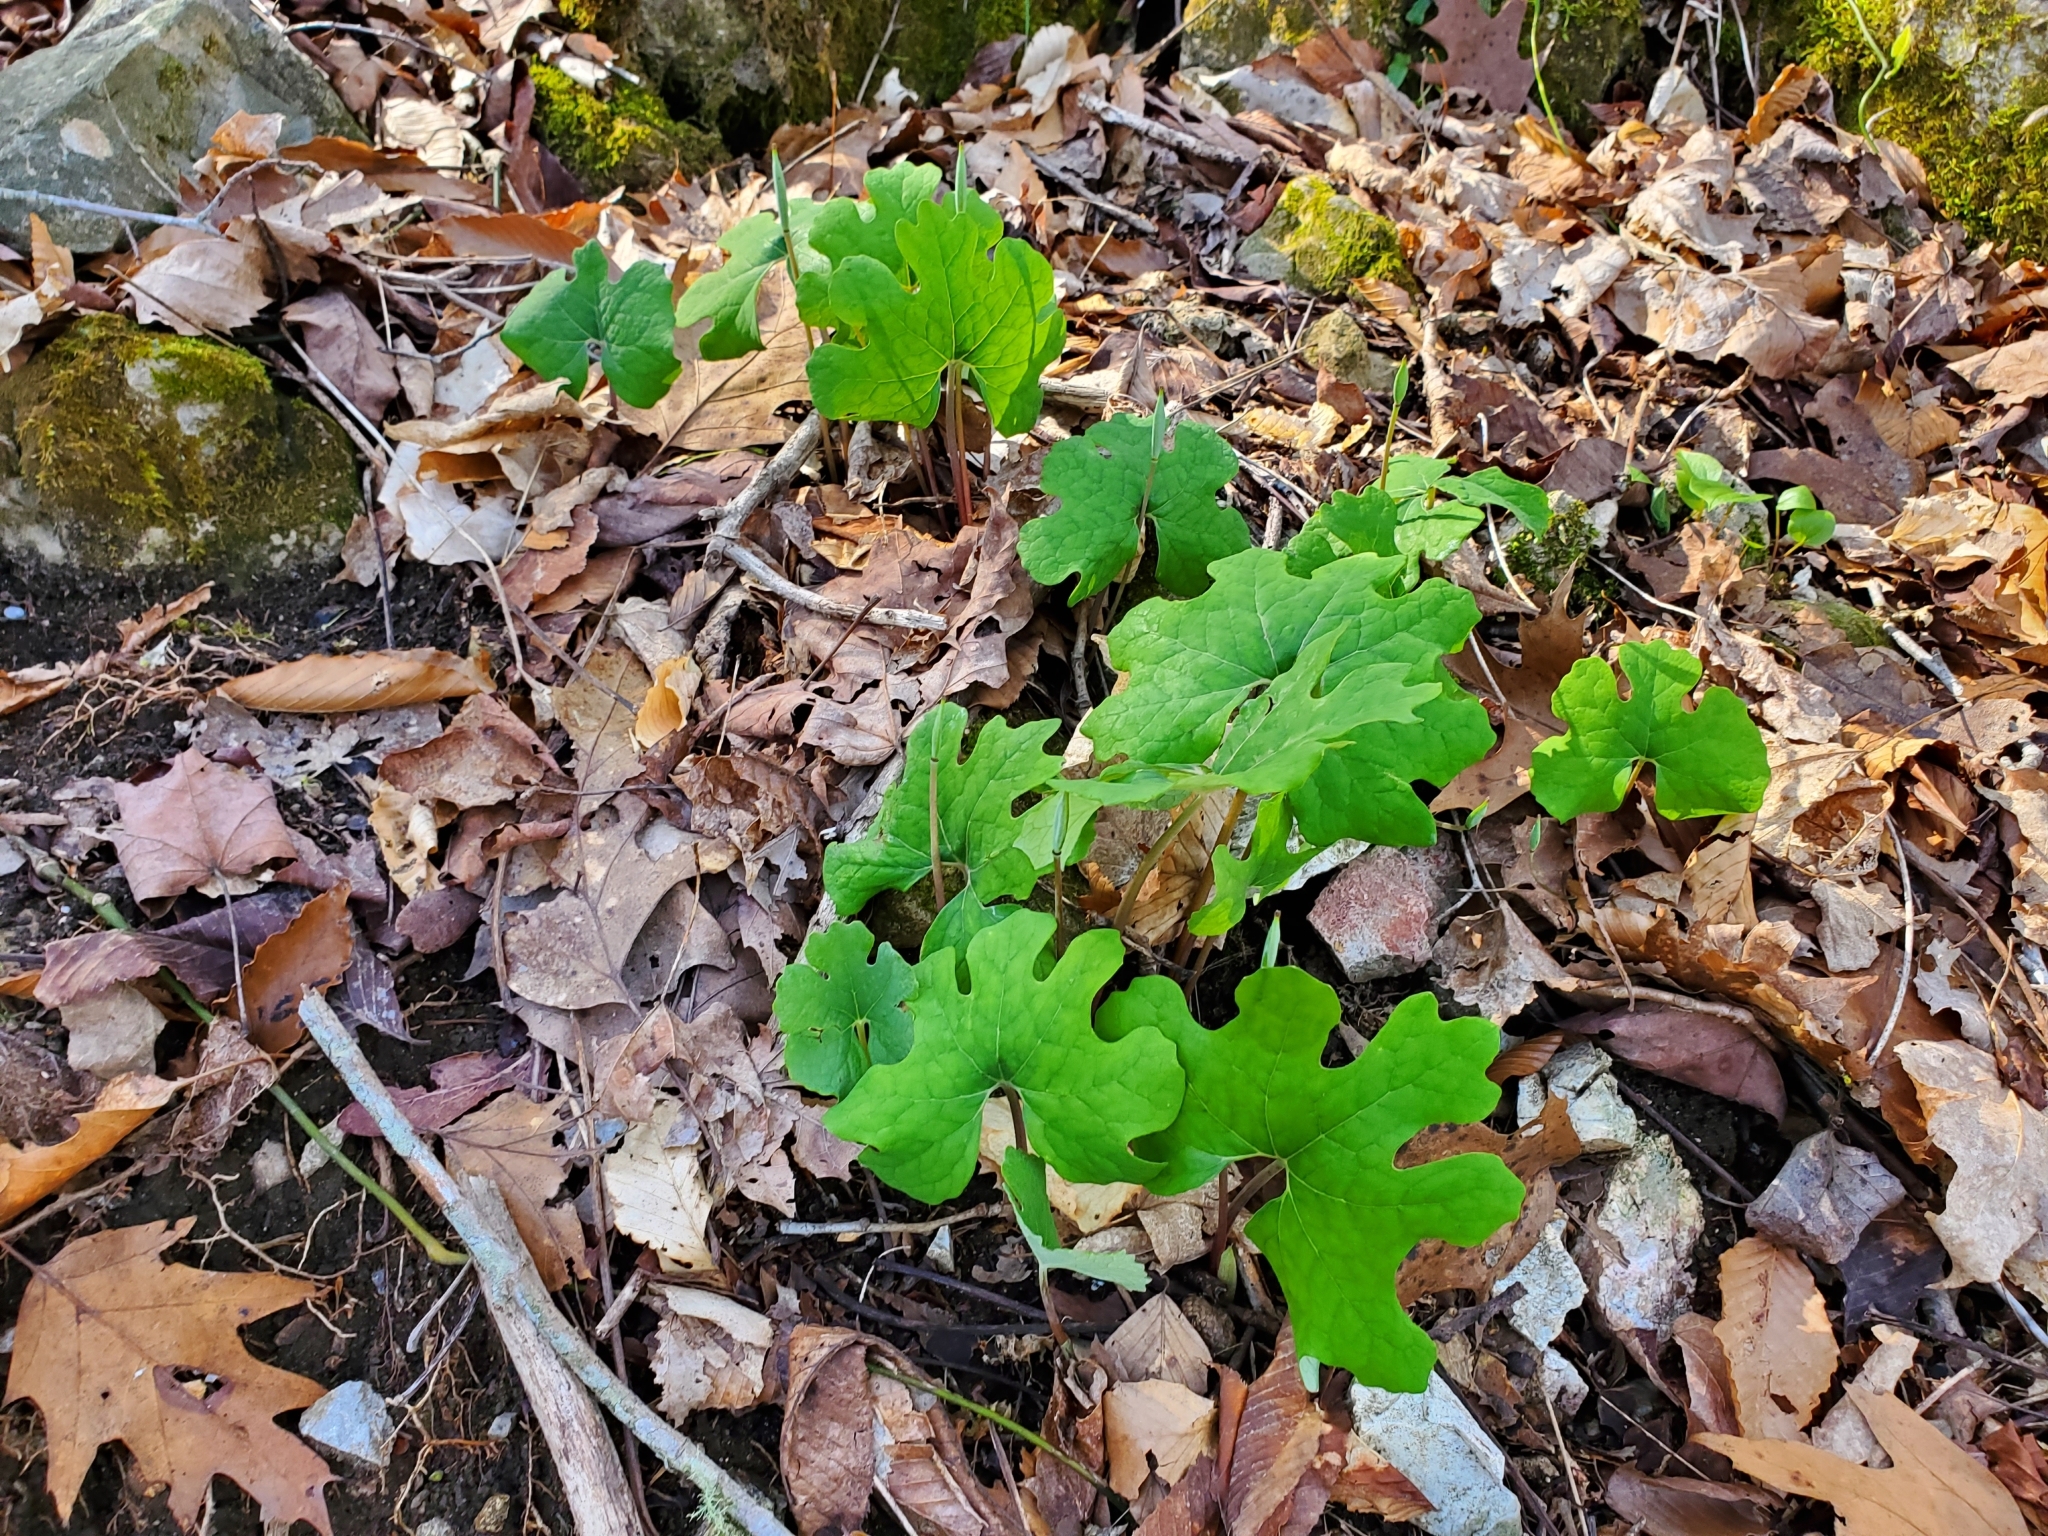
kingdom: Plantae
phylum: Tracheophyta
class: Magnoliopsida
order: Ranunculales
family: Papaveraceae
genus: Sanguinaria
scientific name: Sanguinaria canadensis
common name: Bloodroot
